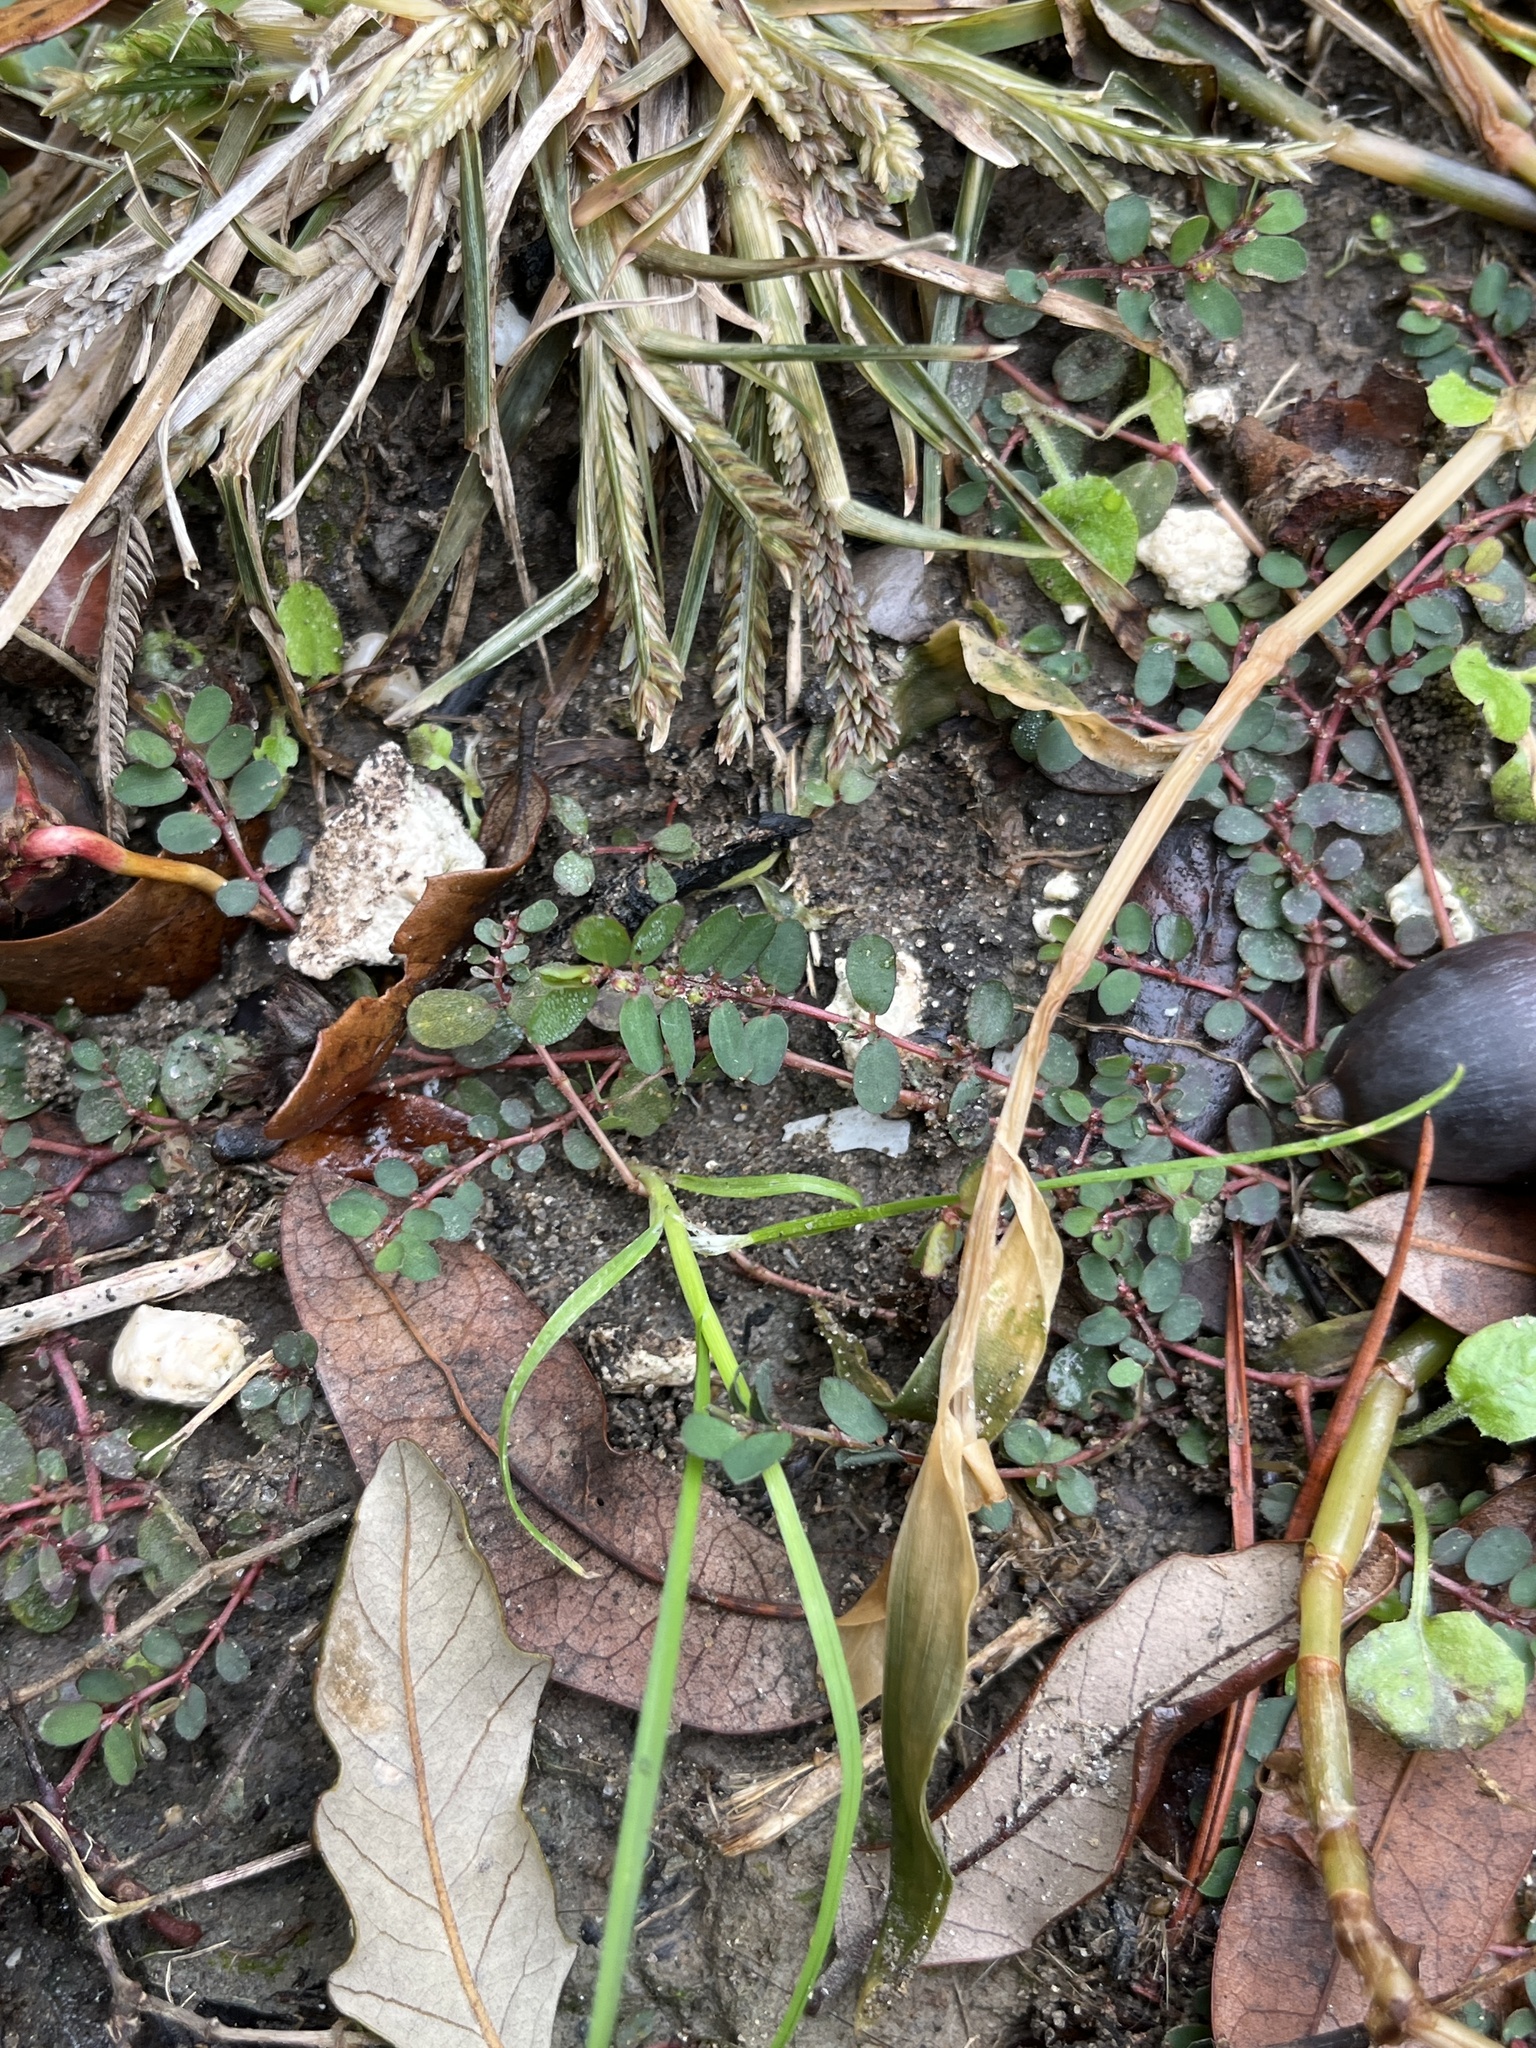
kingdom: Plantae
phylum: Tracheophyta
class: Magnoliopsida
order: Malpighiales
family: Euphorbiaceae
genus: Euphorbia
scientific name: Euphorbia prostrata
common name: Prostrate sandmat
